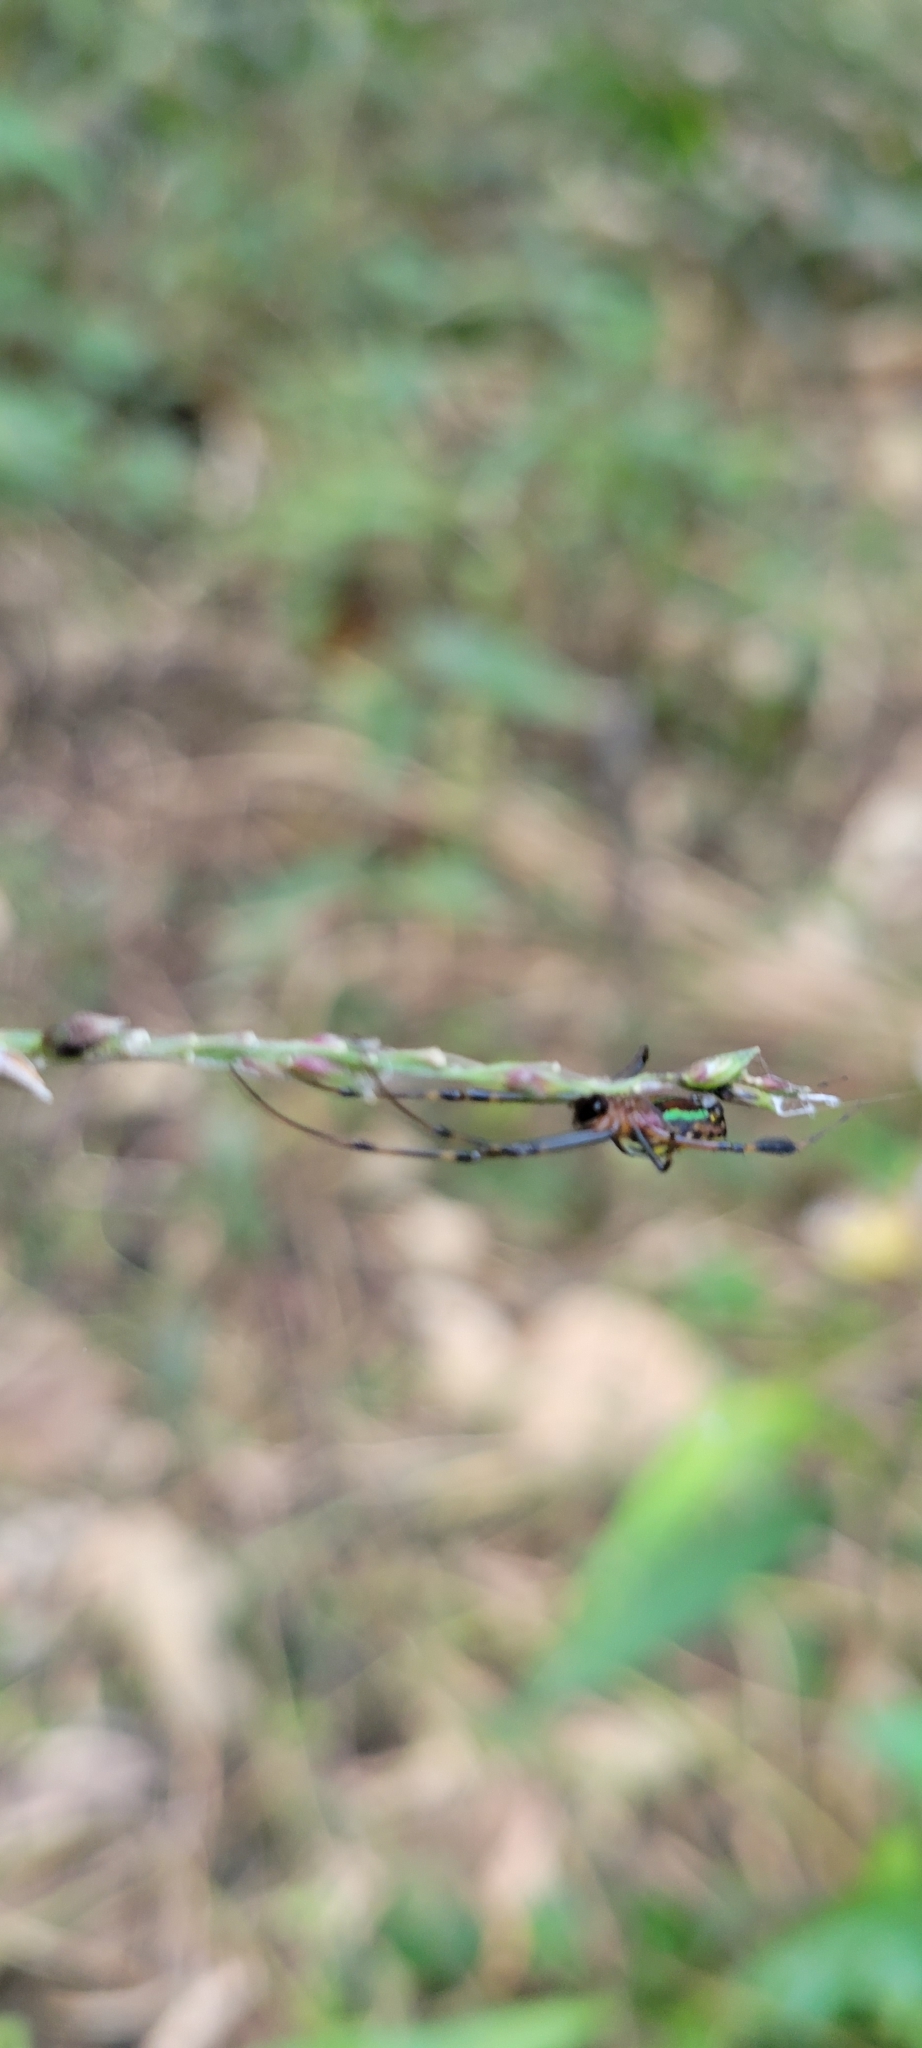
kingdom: Animalia
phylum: Arthropoda
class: Arachnida
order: Araneae
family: Tetragnathidae
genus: Leucauge
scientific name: Leucauge tessellata
